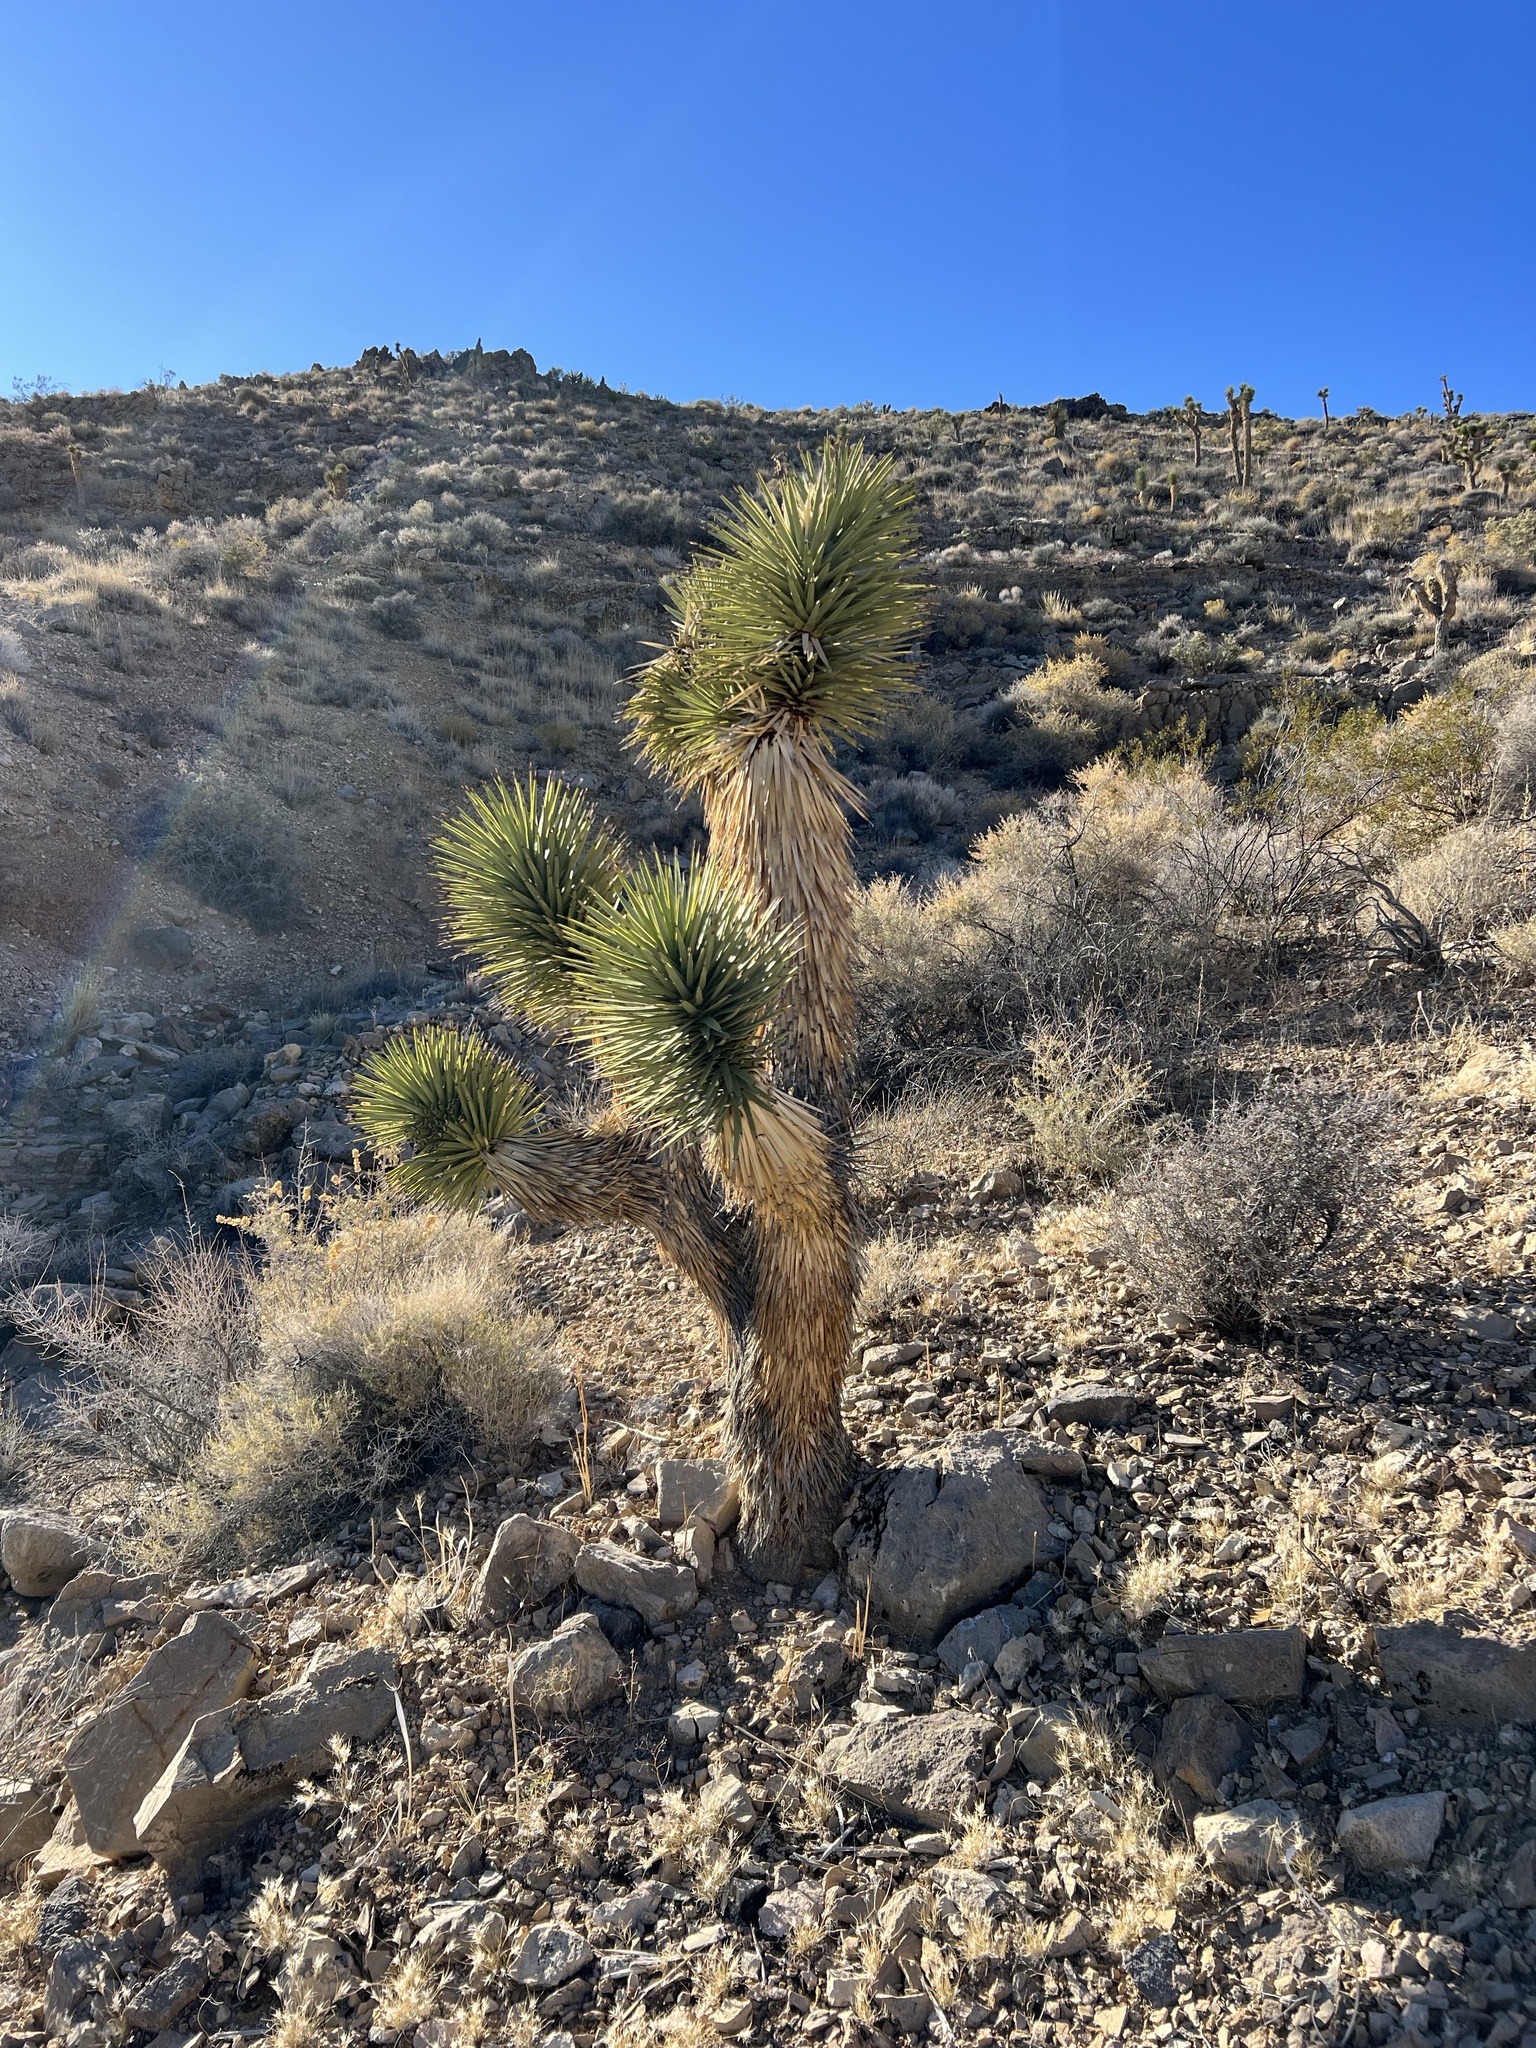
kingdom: Plantae
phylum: Tracheophyta
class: Liliopsida
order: Asparagales
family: Asparagaceae
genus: Yucca
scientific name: Yucca brevifolia
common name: Joshua tree
